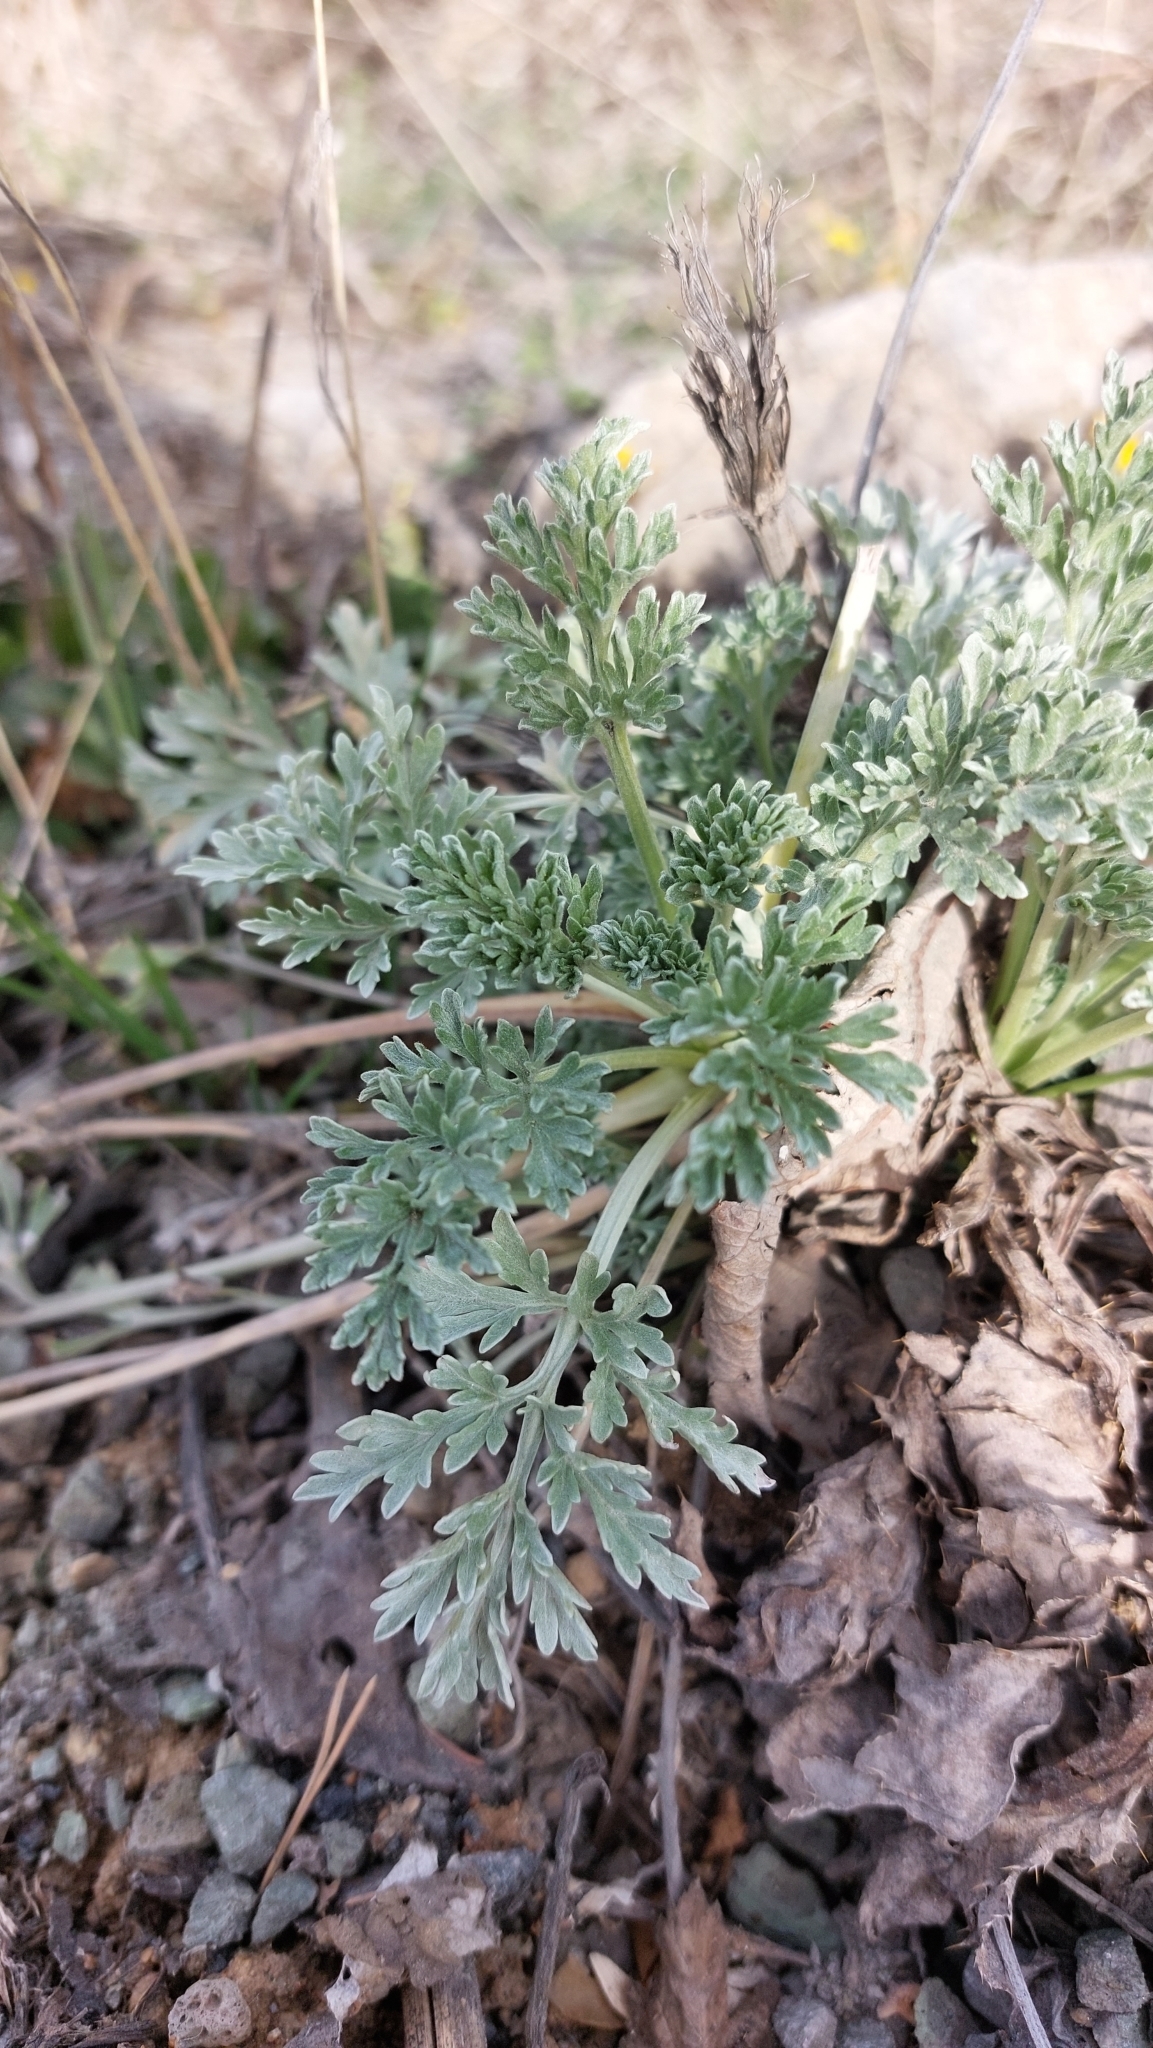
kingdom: Plantae
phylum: Tracheophyta
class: Magnoliopsida
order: Asterales
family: Asteraceae
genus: Artemisia
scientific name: Artemisia absinthium
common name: Wormwood
